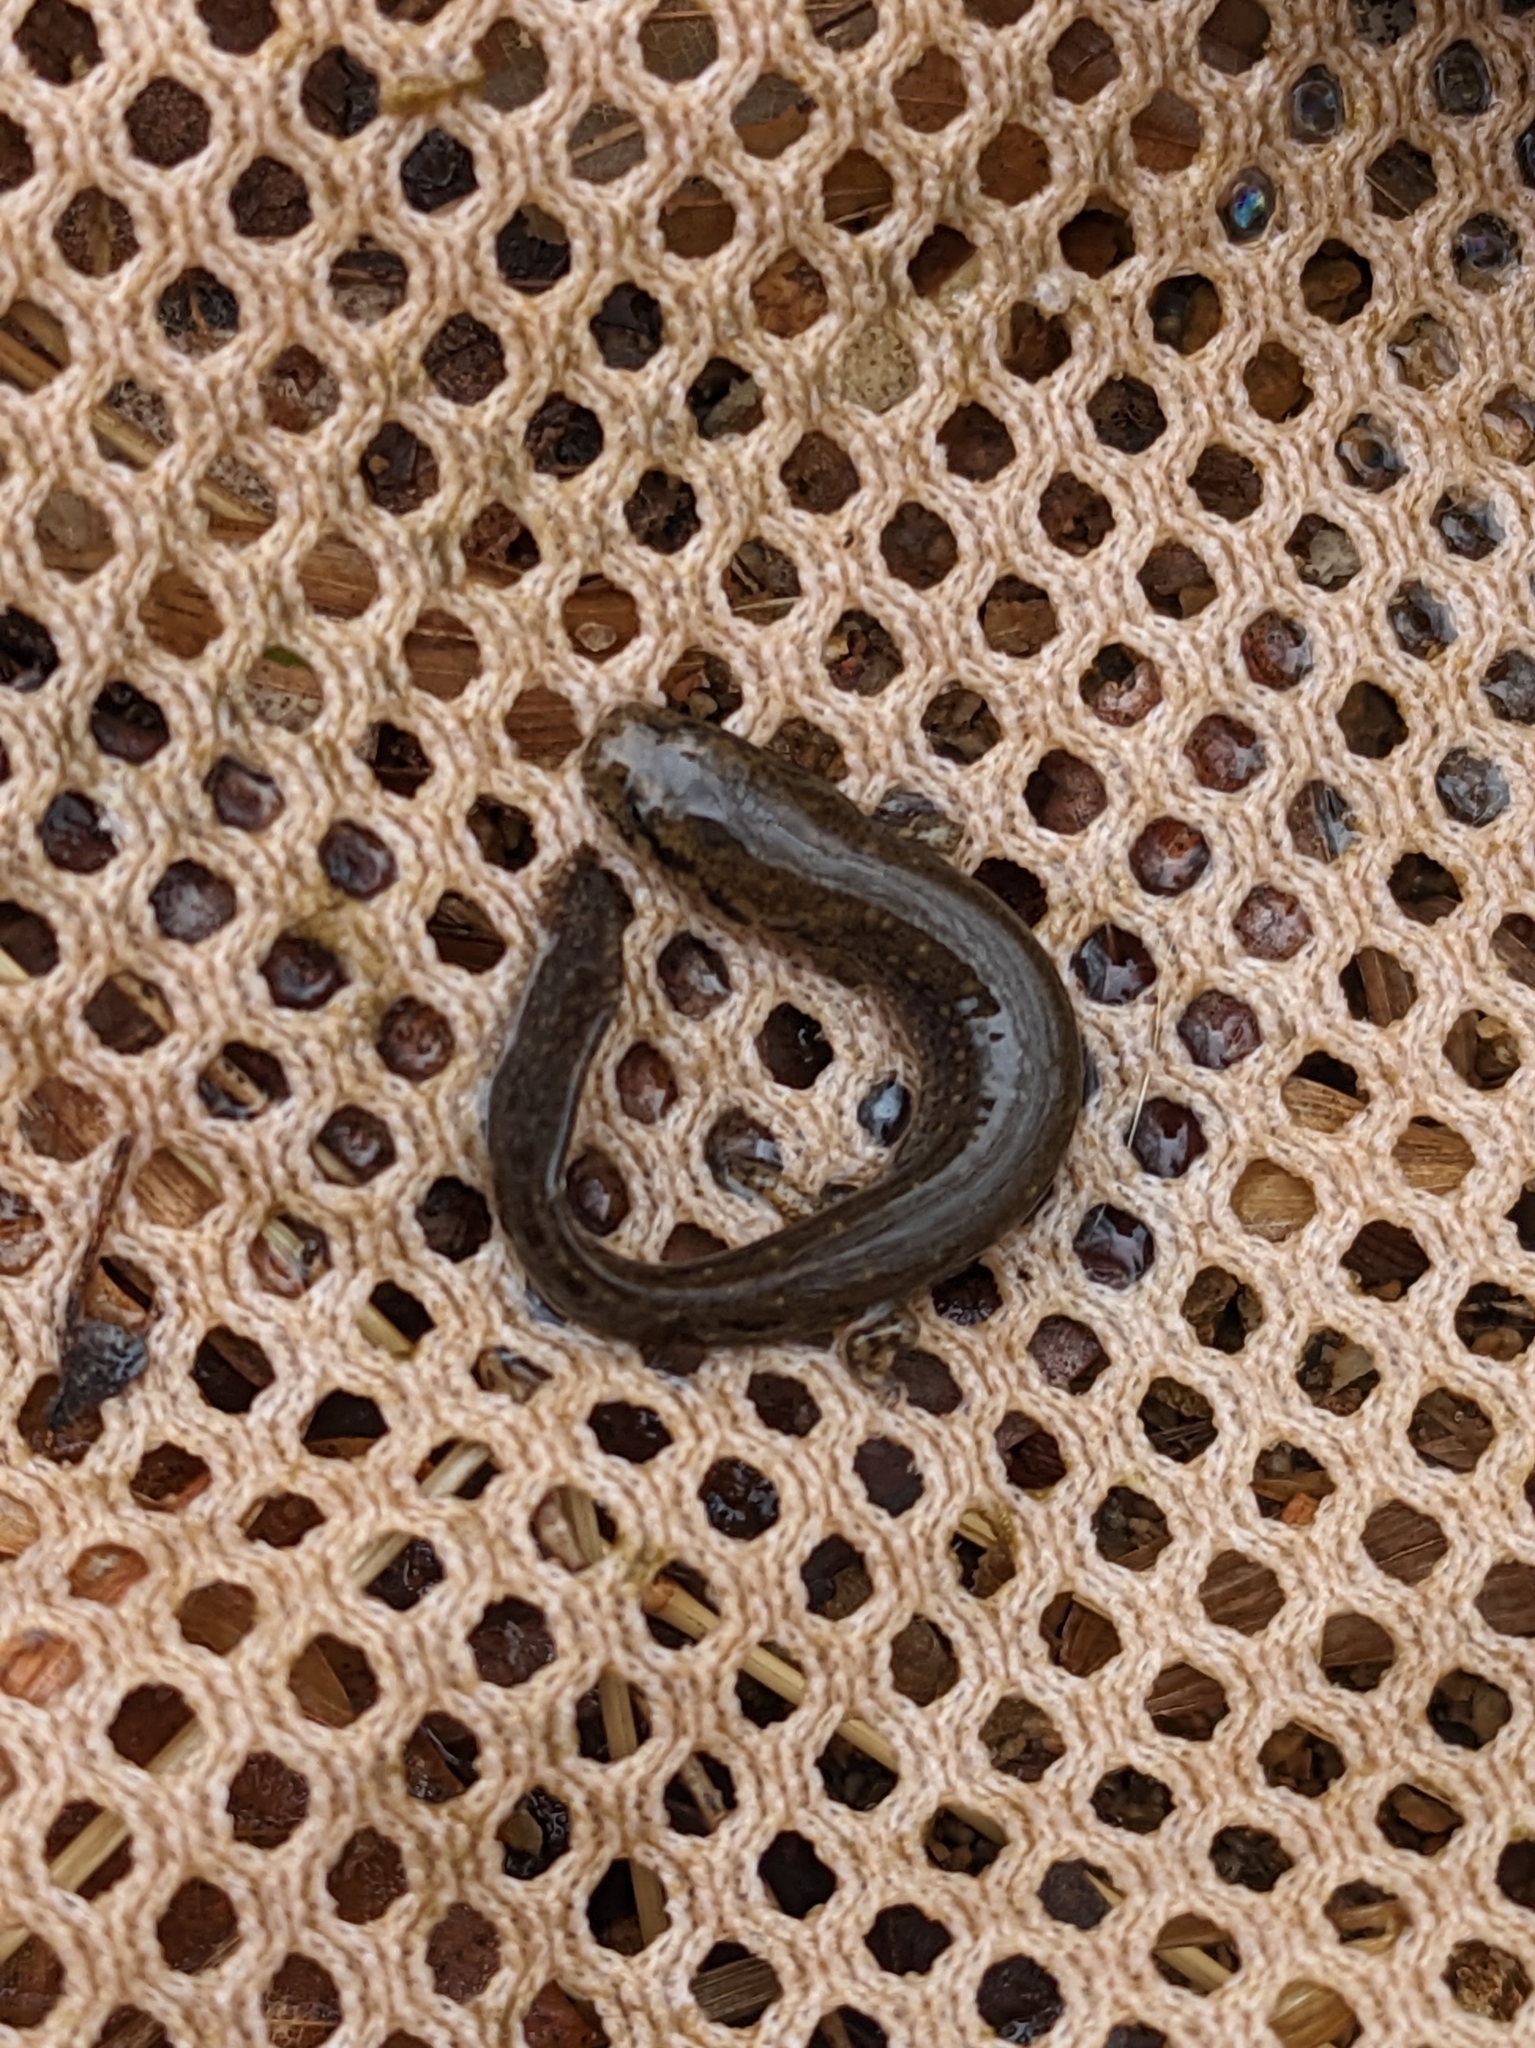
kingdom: Animalia
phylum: Chordata
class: Amphibia
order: Caudata
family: Plethodontidae
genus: Eurycea
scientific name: Eurycea cirrigera
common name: Southern two-lined salamander
